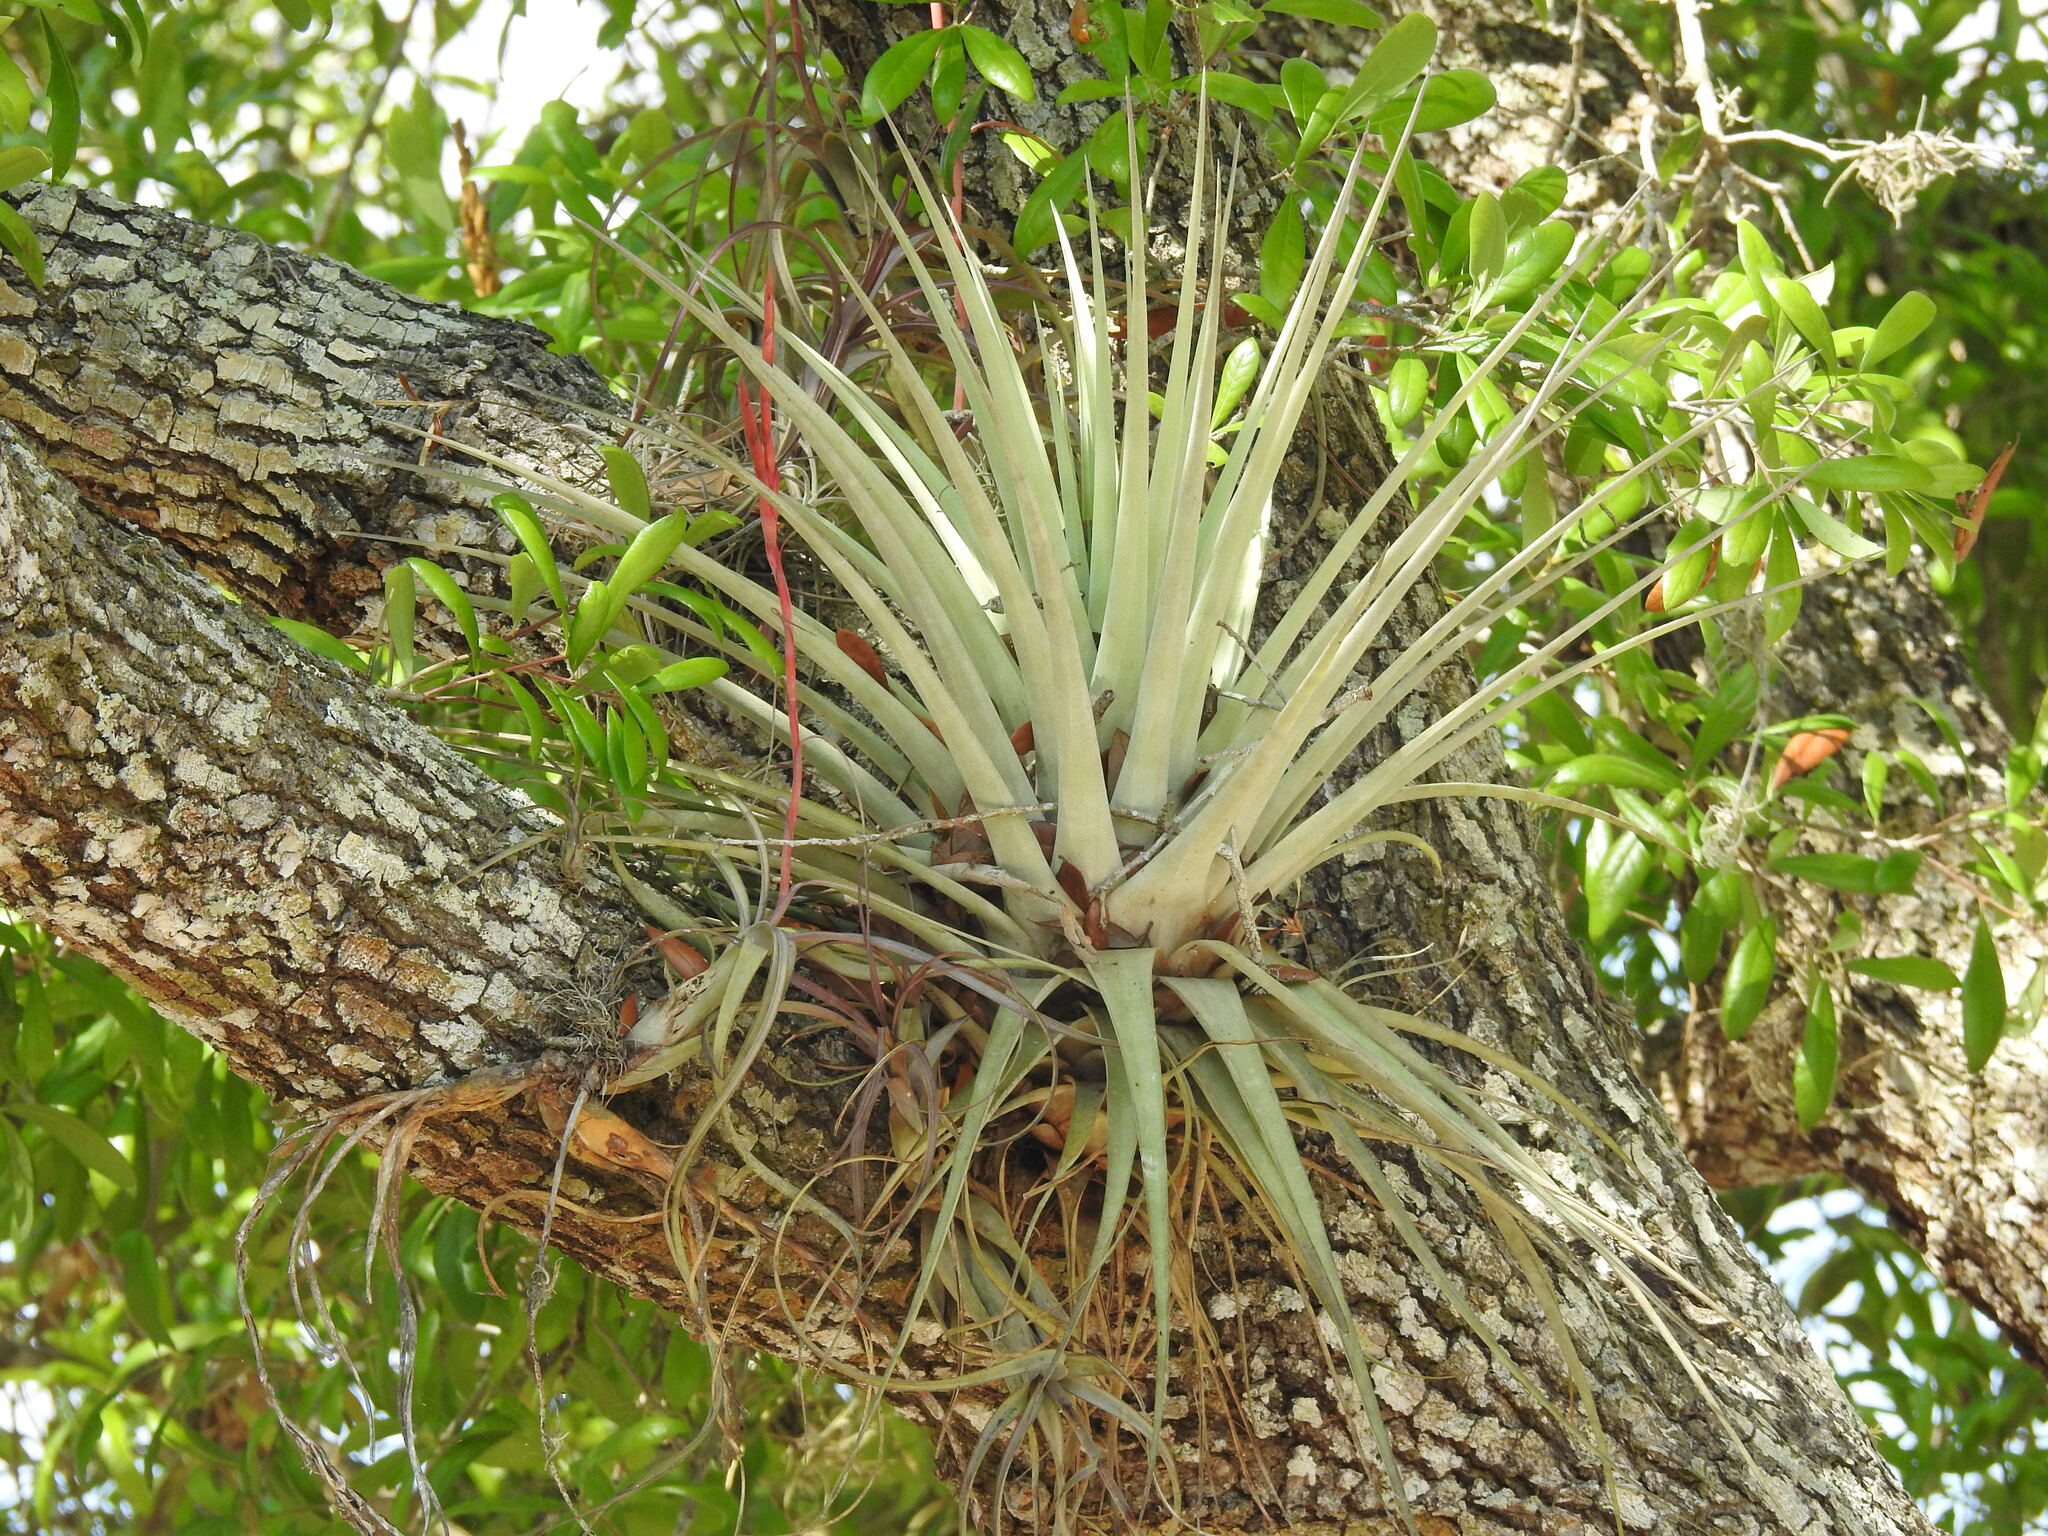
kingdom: Plantae
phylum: Tracheophyta
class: Liliopsida
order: Poales
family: Bromeliaceae
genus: Tillandsia
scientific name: Tillandsia balbisiana
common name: Northern needleleaf
